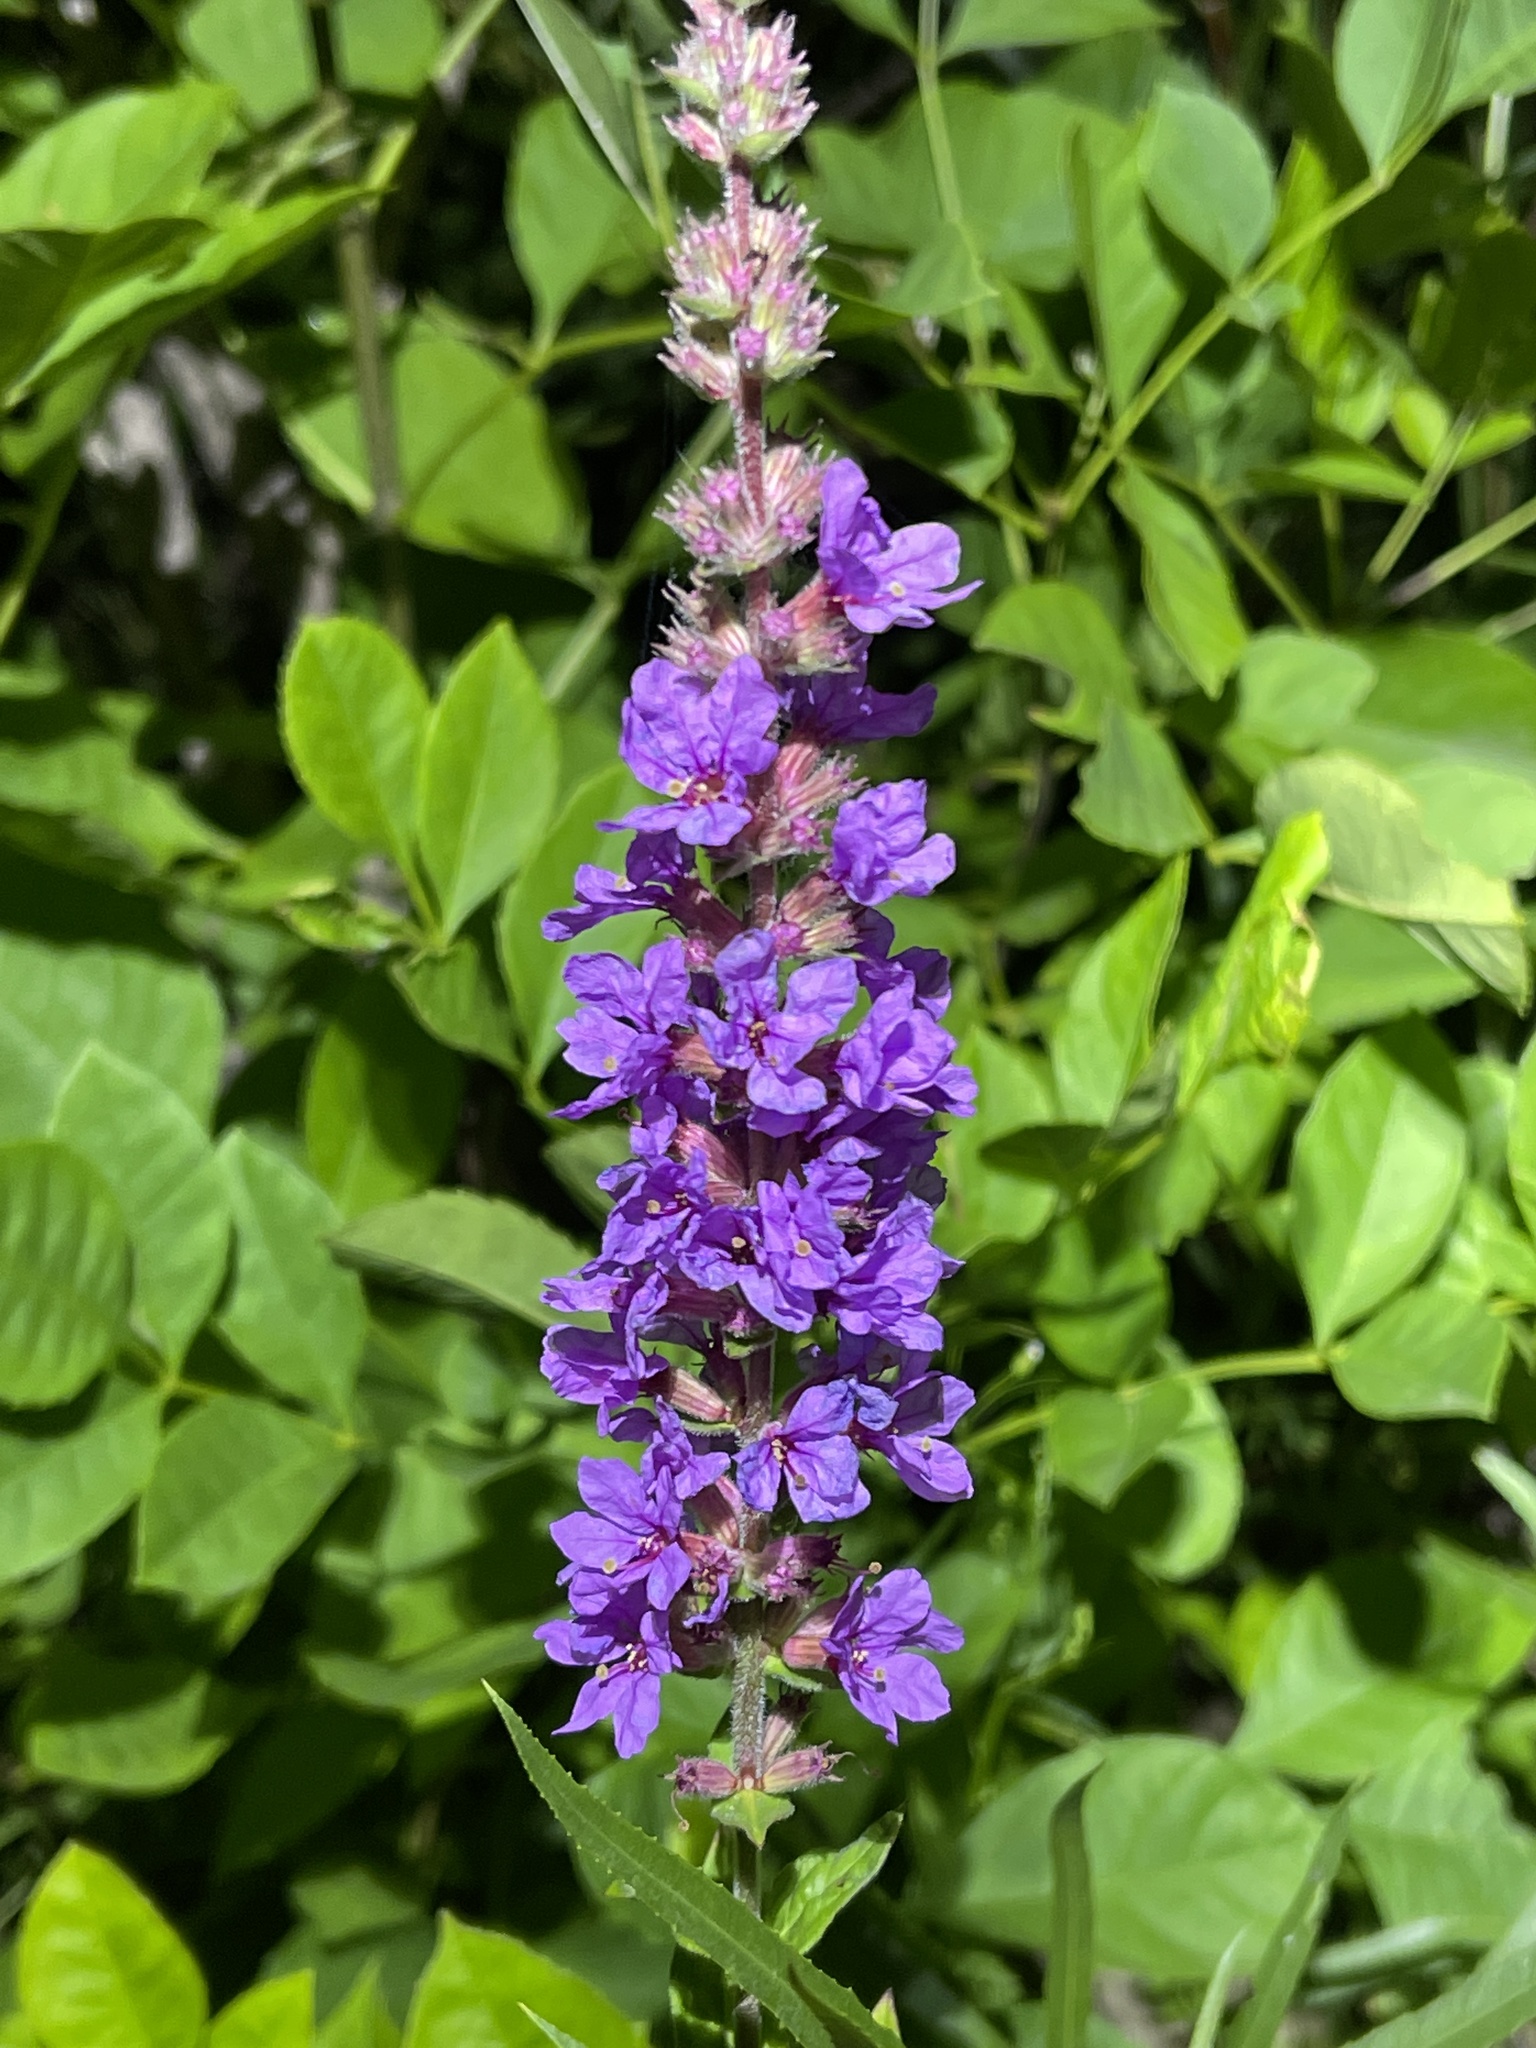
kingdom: Plantae
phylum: Tracheophyta
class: Magnoliopsida
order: Myrtales
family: Lythraceae
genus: Lythrum
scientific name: Lythrum salicaria
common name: Purple loosestrife
